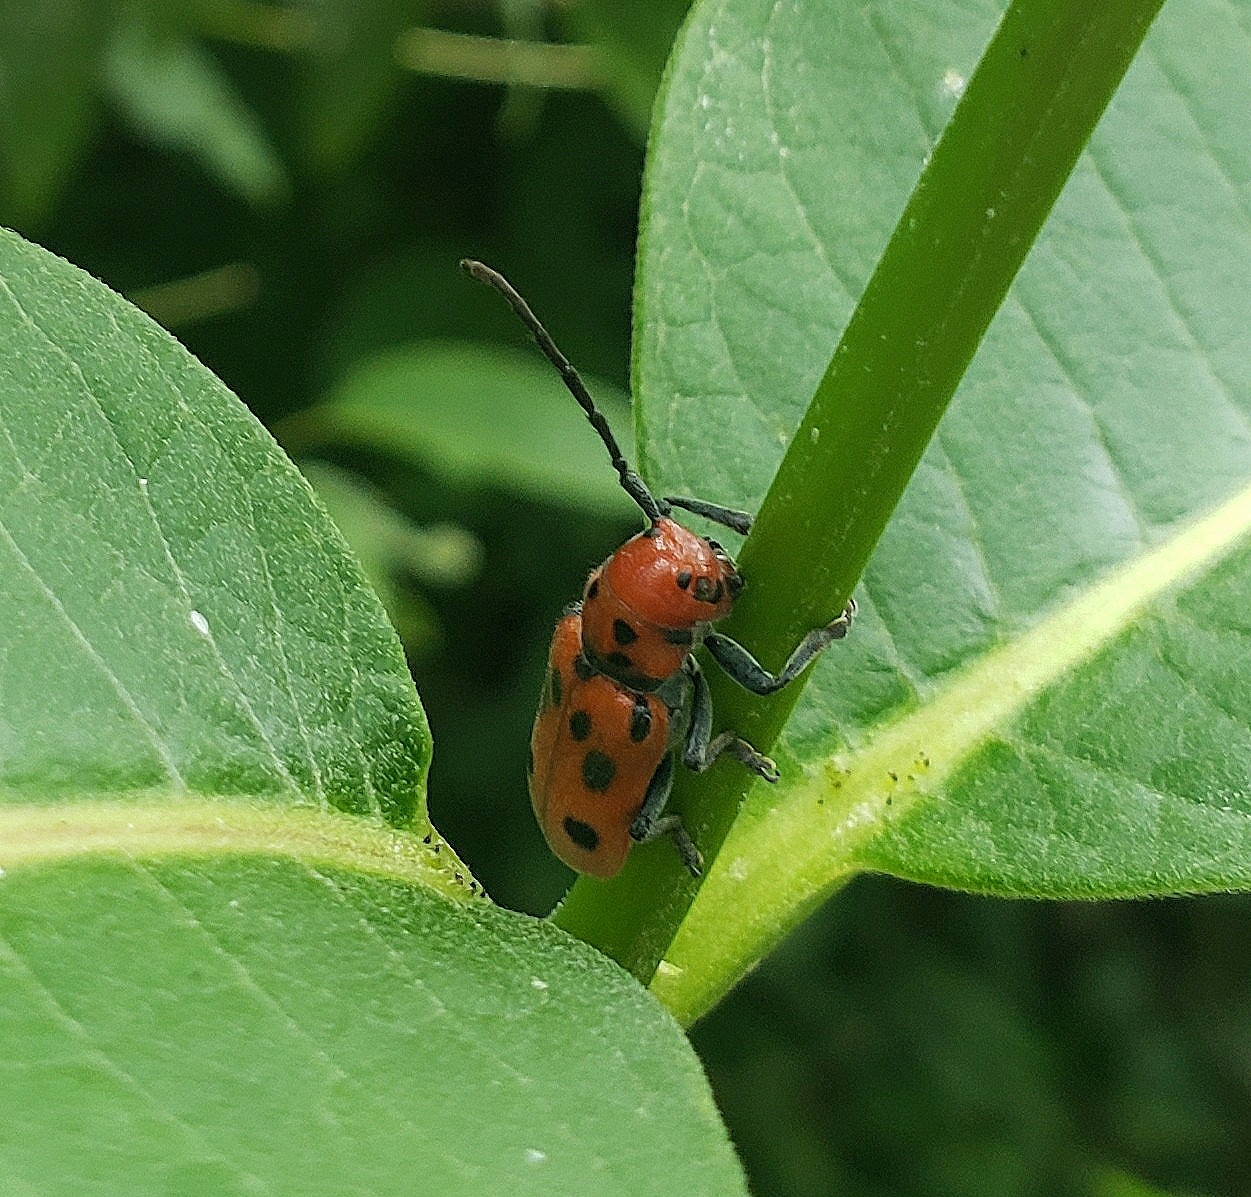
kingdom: Animalia
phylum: Arthropoda
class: Insecta
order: Coleoptera
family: Cerambycidae
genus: Tetraopes
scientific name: Tetraopes tetrophthalmus
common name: Red milkweed beetle
